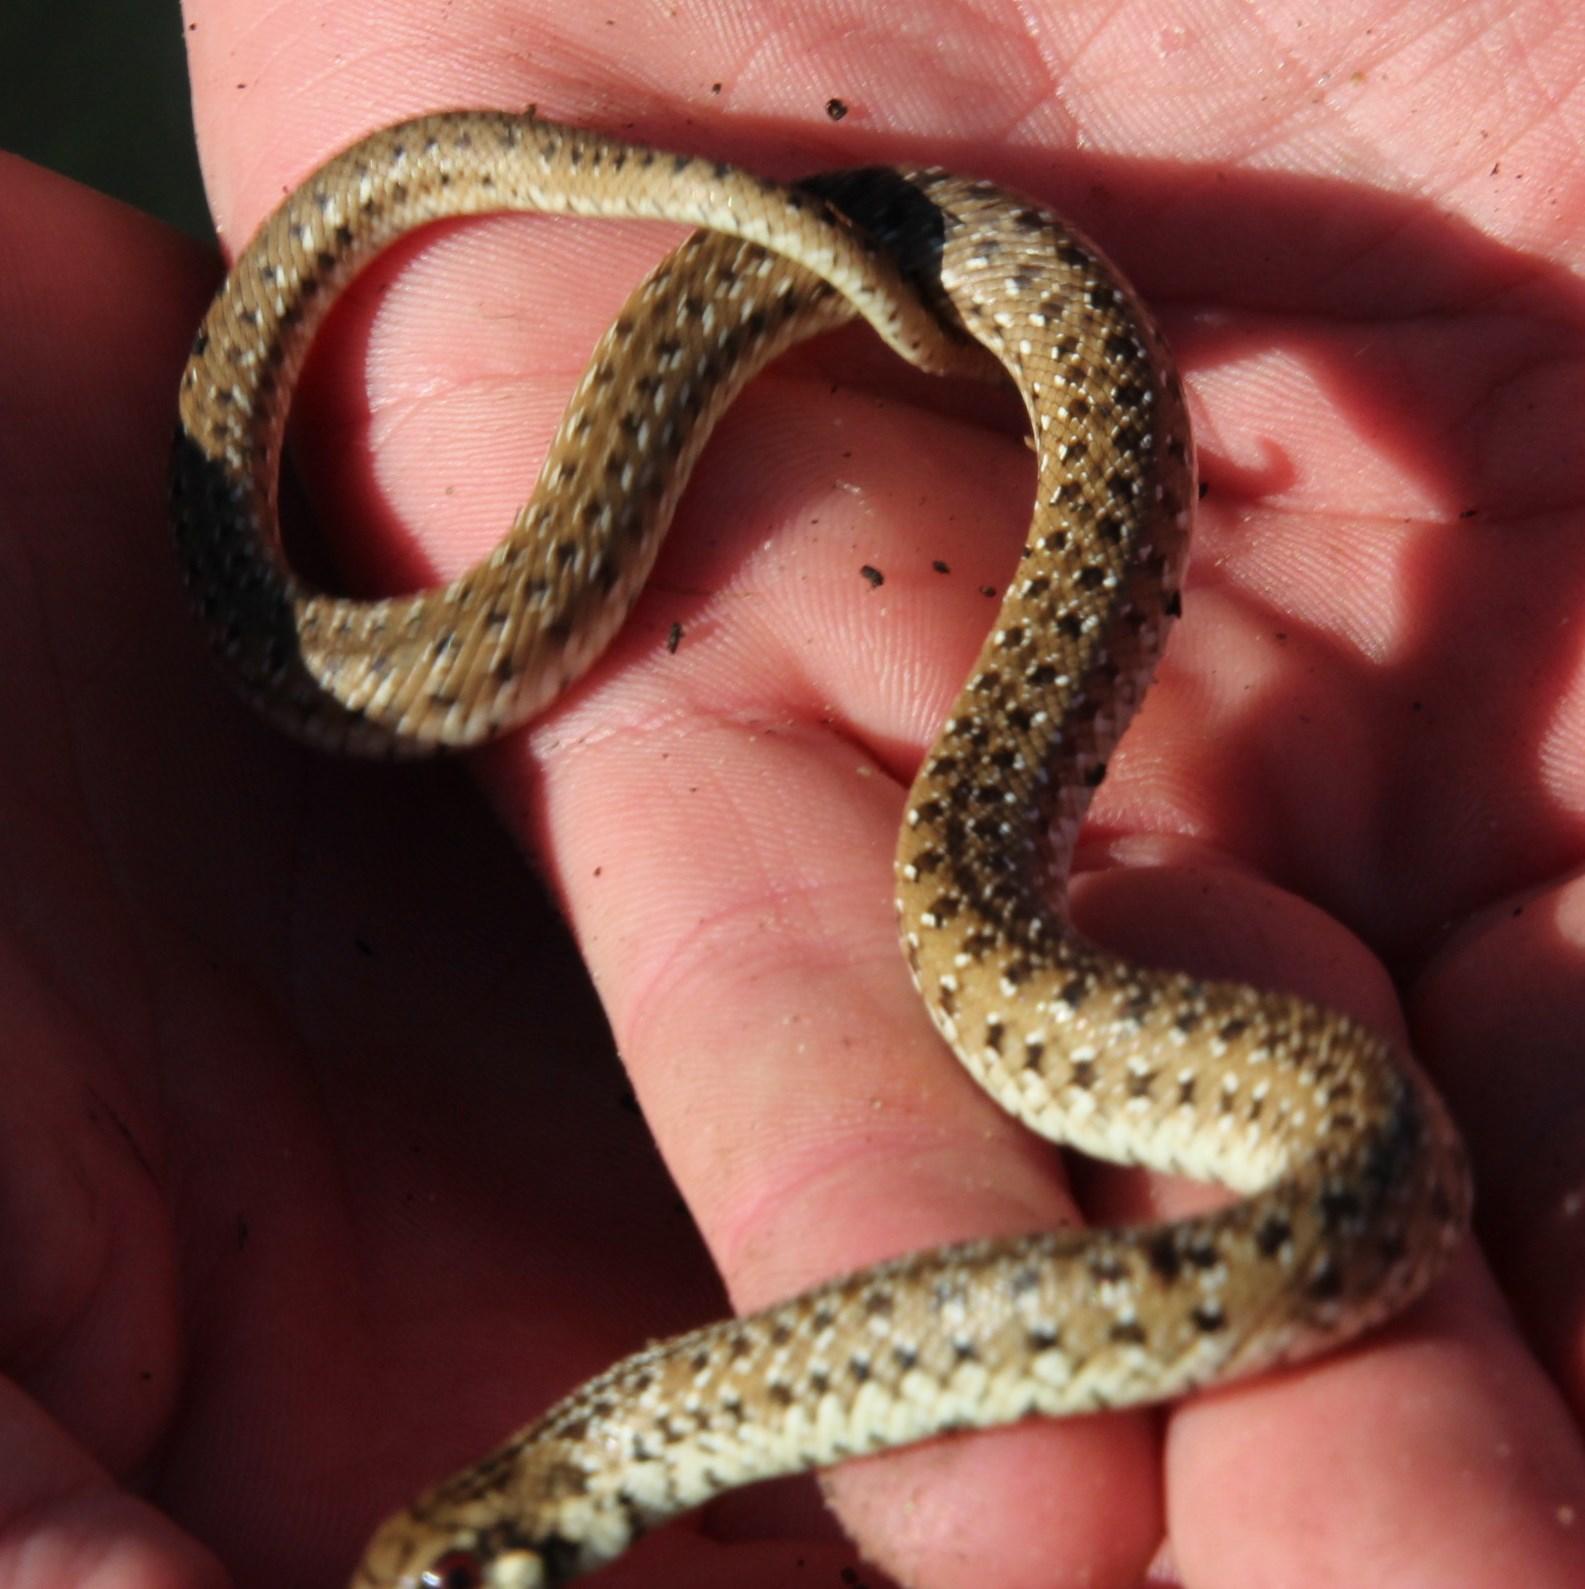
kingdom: Animalia
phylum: Chordata
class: Squamata
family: Pseudaspididae
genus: Pseudaspis
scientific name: Pseudaspis cana
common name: Mole snake
